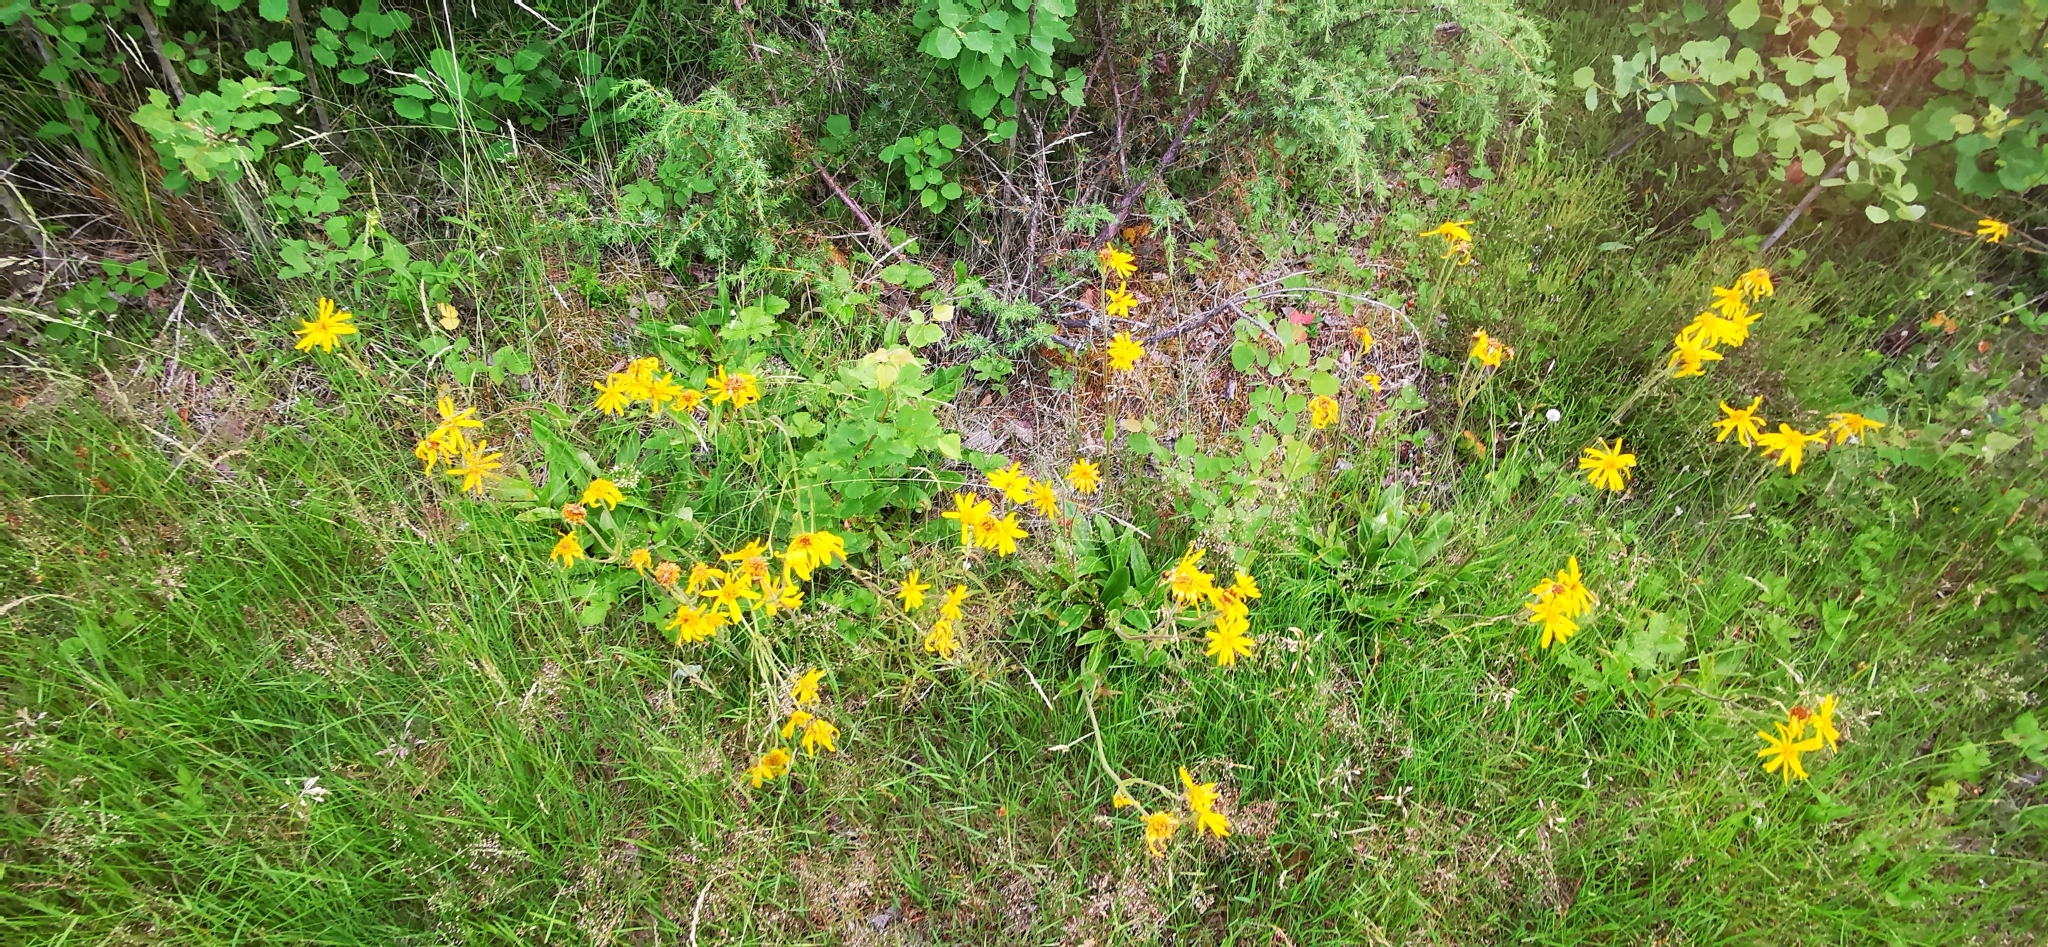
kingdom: Plantae
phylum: Tracheophyta
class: Magnoliopsida
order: Asterales
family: Asteraceae
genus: Arnica
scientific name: Arnica montana
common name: Leopard's bane
